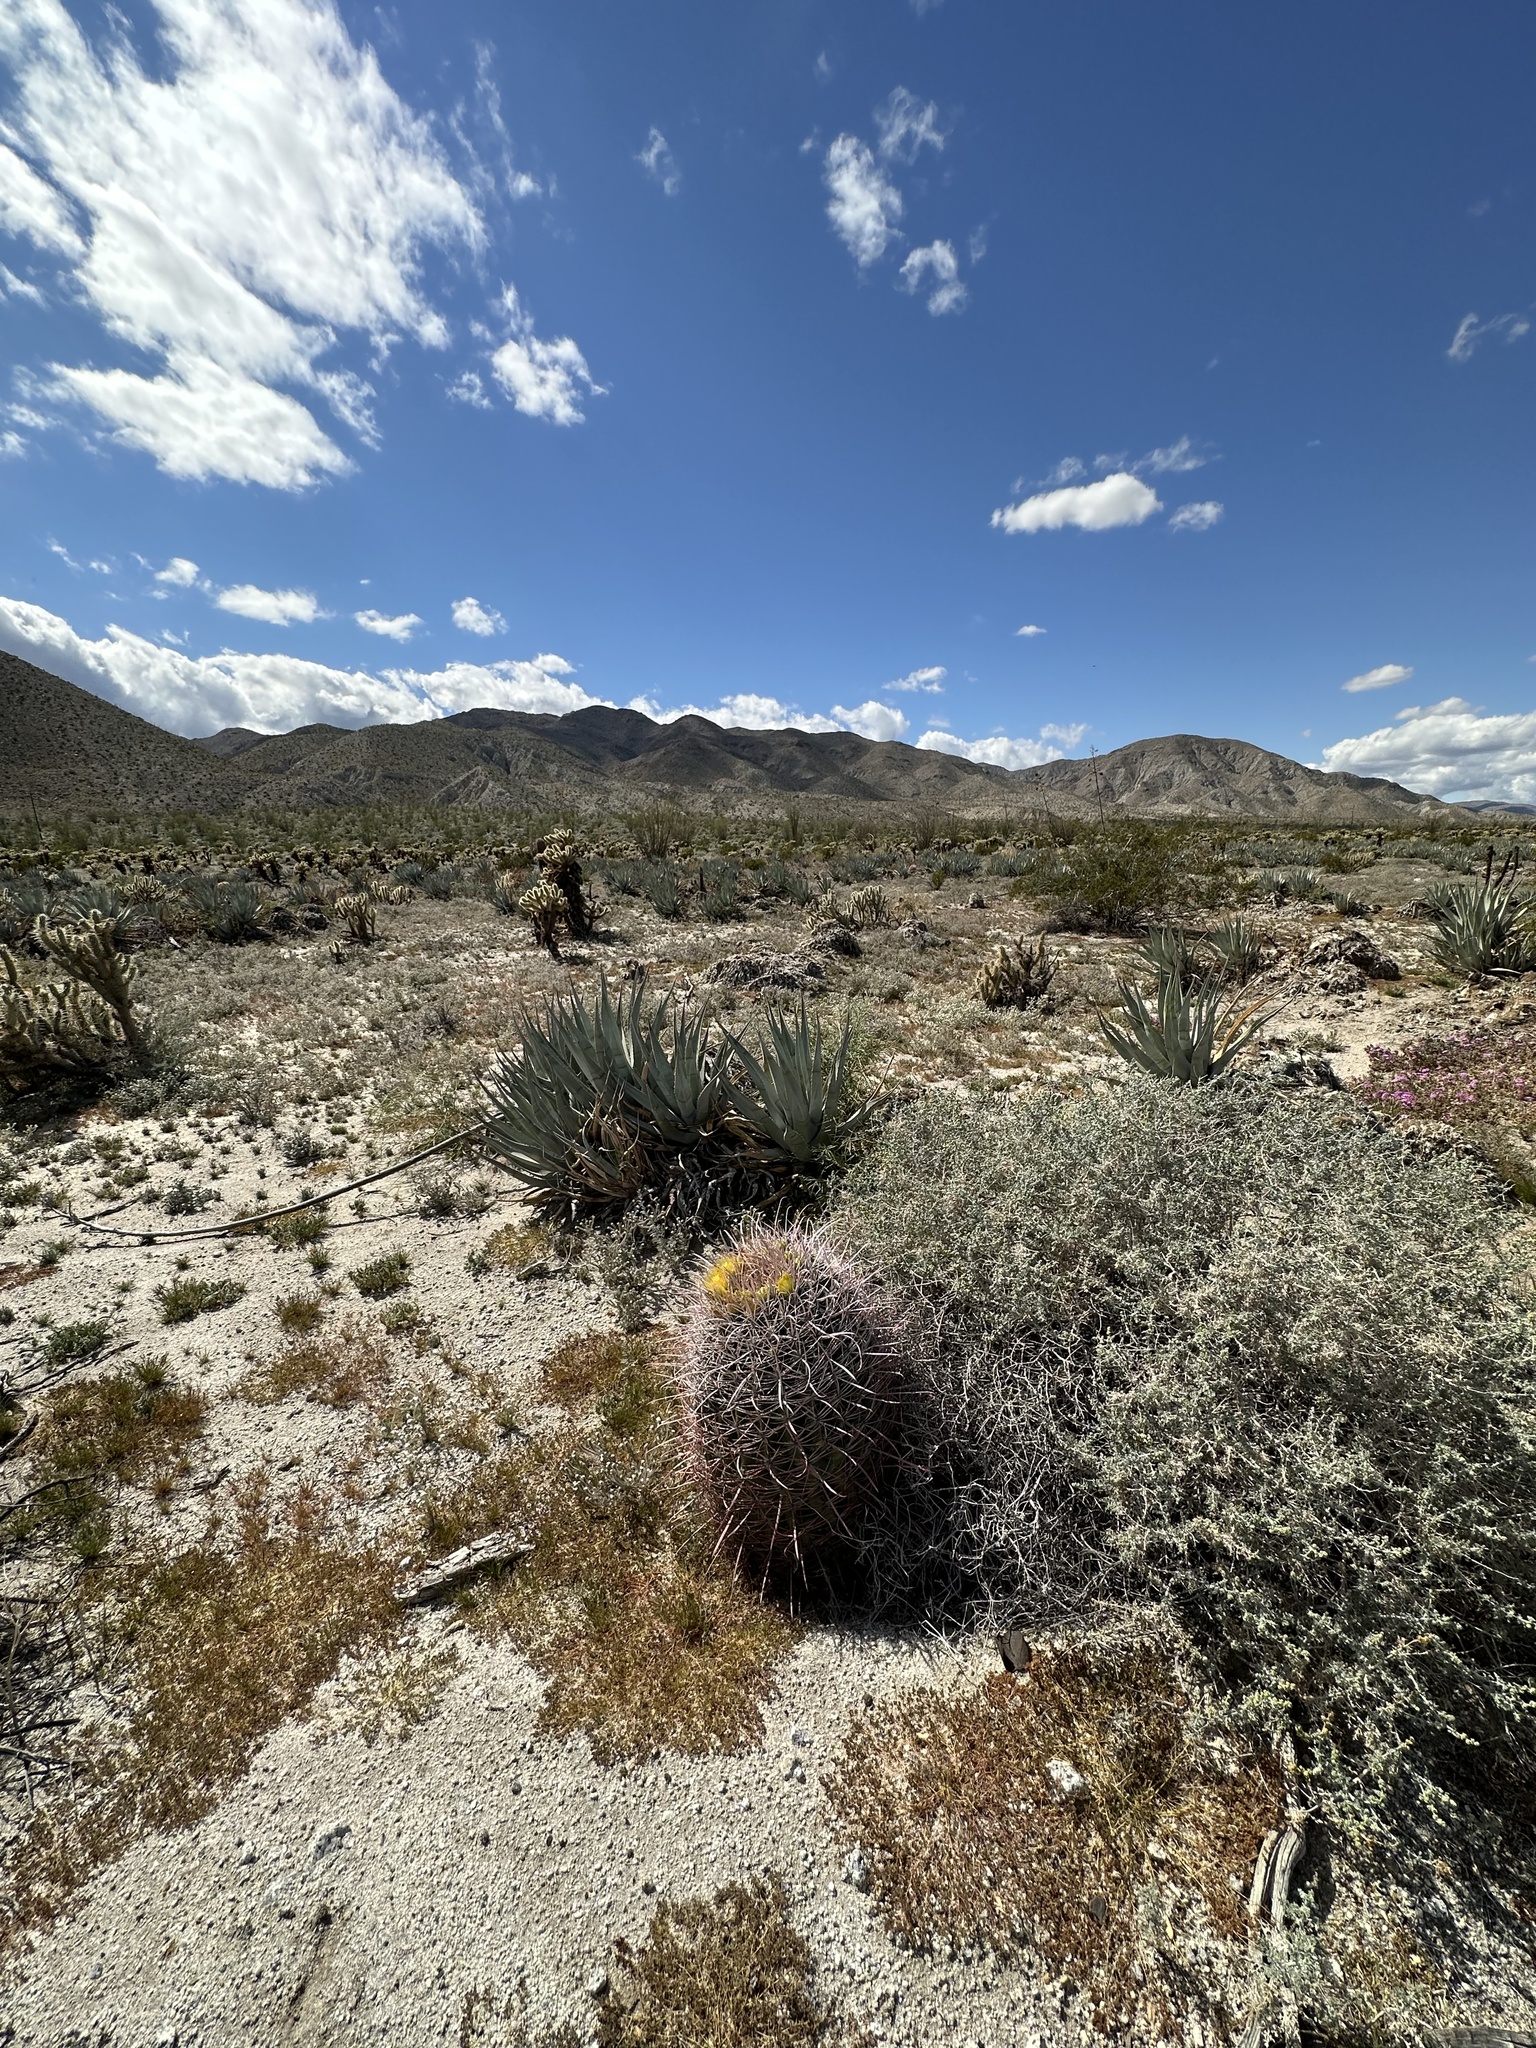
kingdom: Plantae
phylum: Tracheophyta
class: Magnoliopsida
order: Caryophyllales
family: Cactaceae
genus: Ferocactus
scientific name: Ferocactus cylindraceus
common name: California barrel cactus
